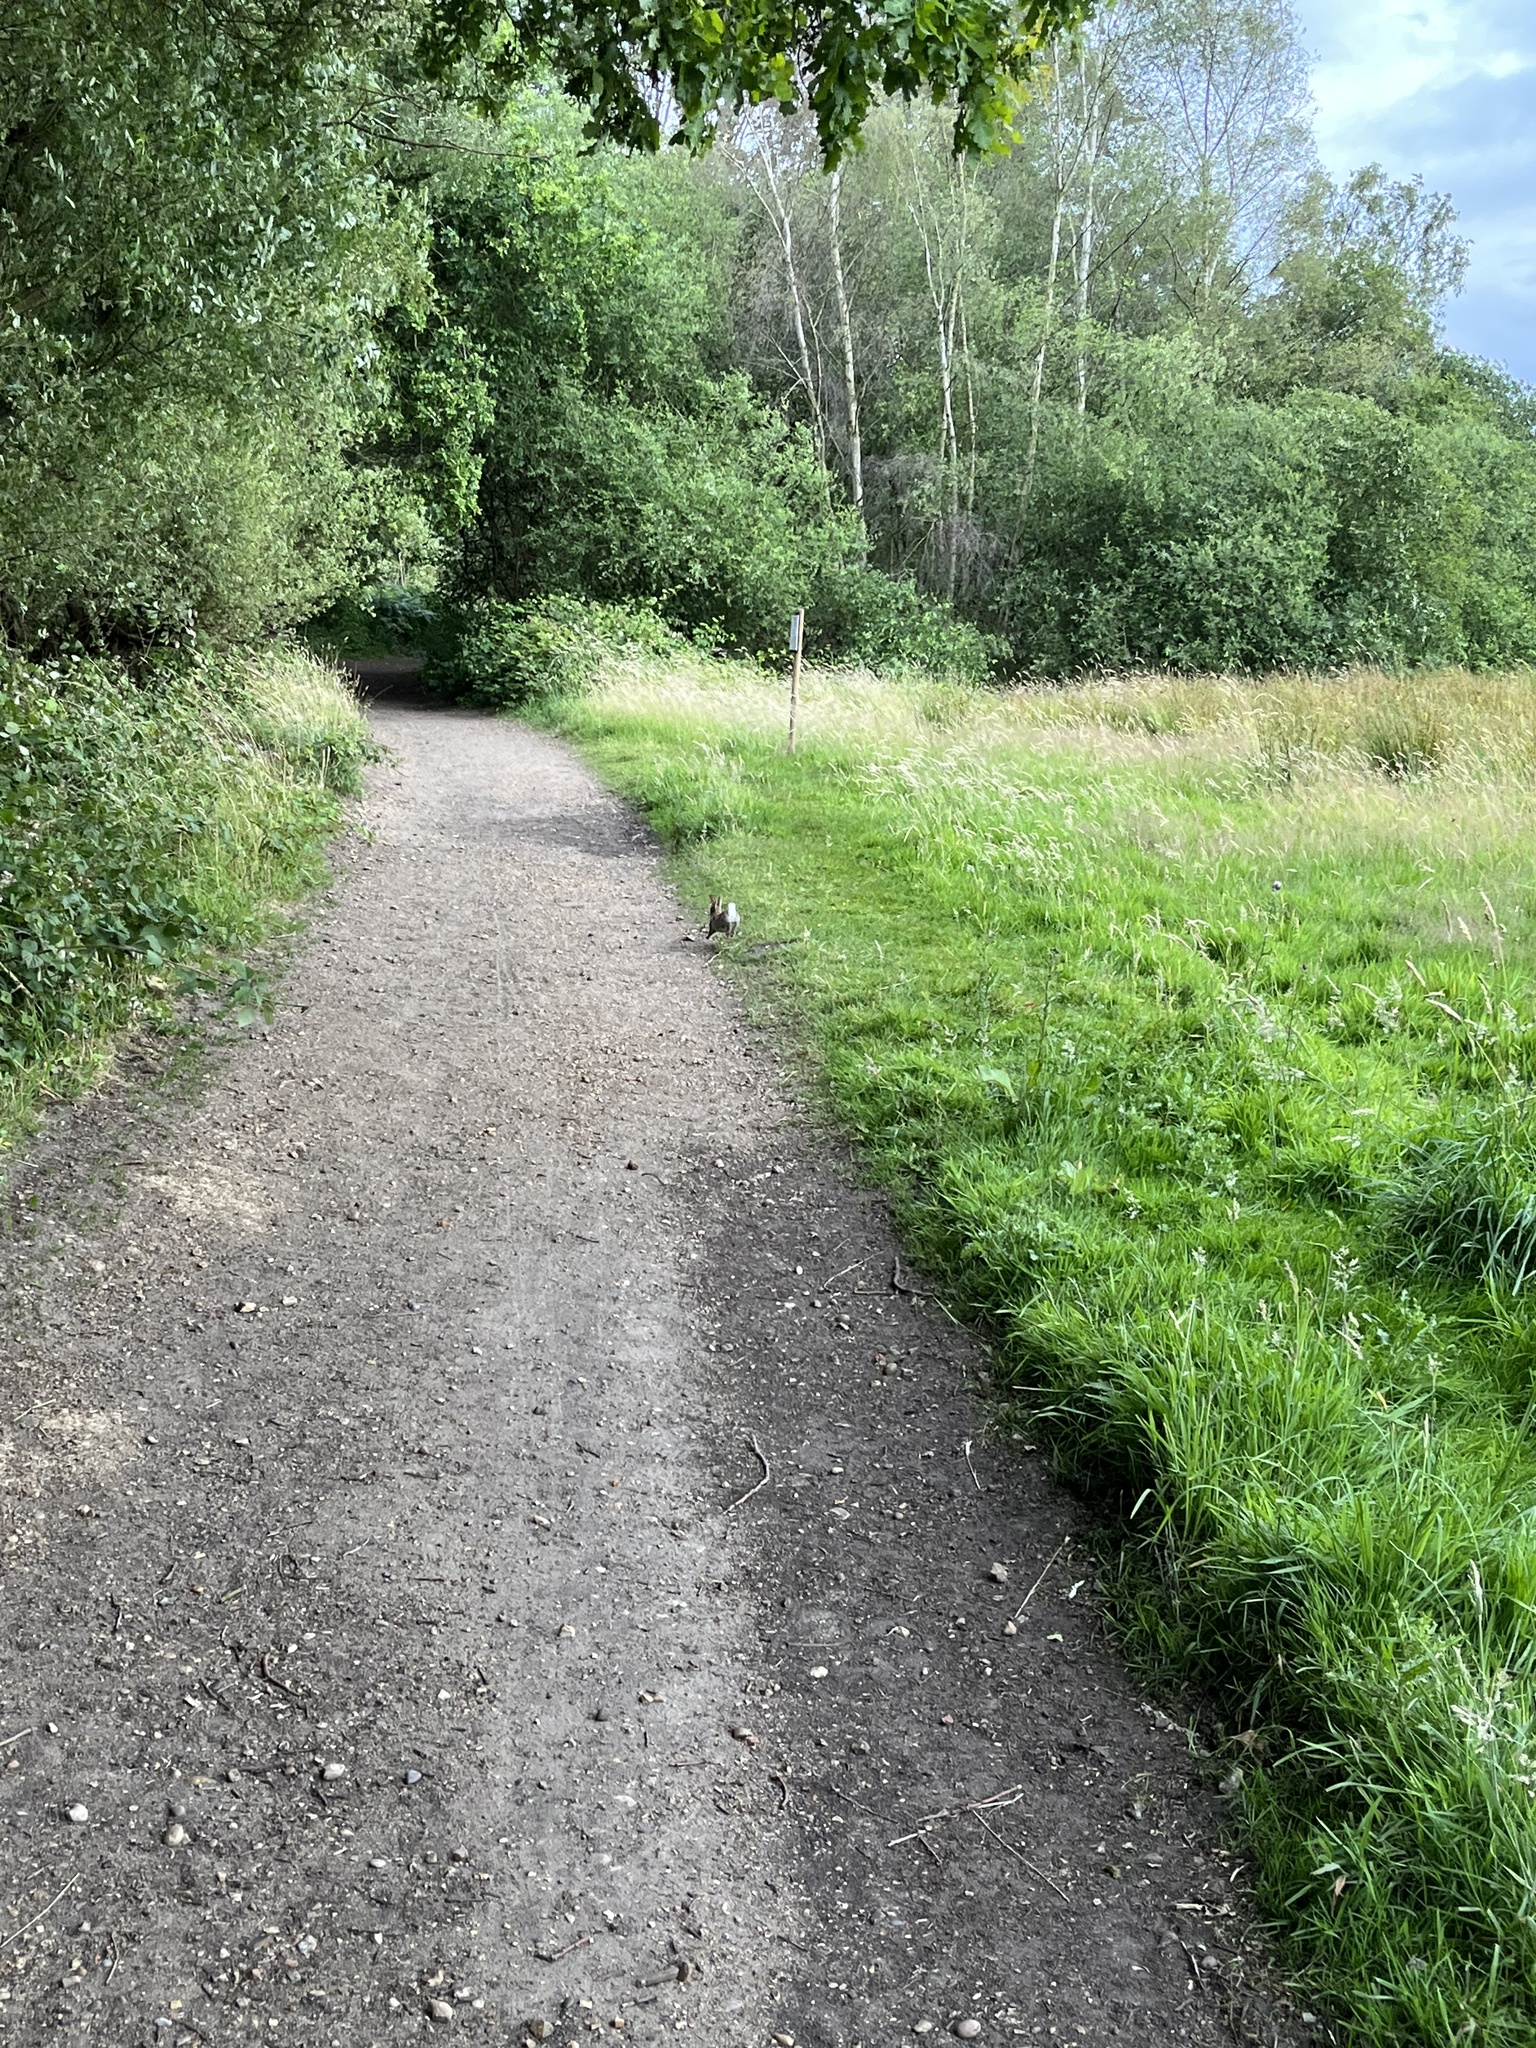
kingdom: Animalia
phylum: Chordata
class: Mammalia
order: Lagomorpha
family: Leporidae
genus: Oryctolagus
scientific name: Oryctolagus cuniculus
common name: European rabbit
